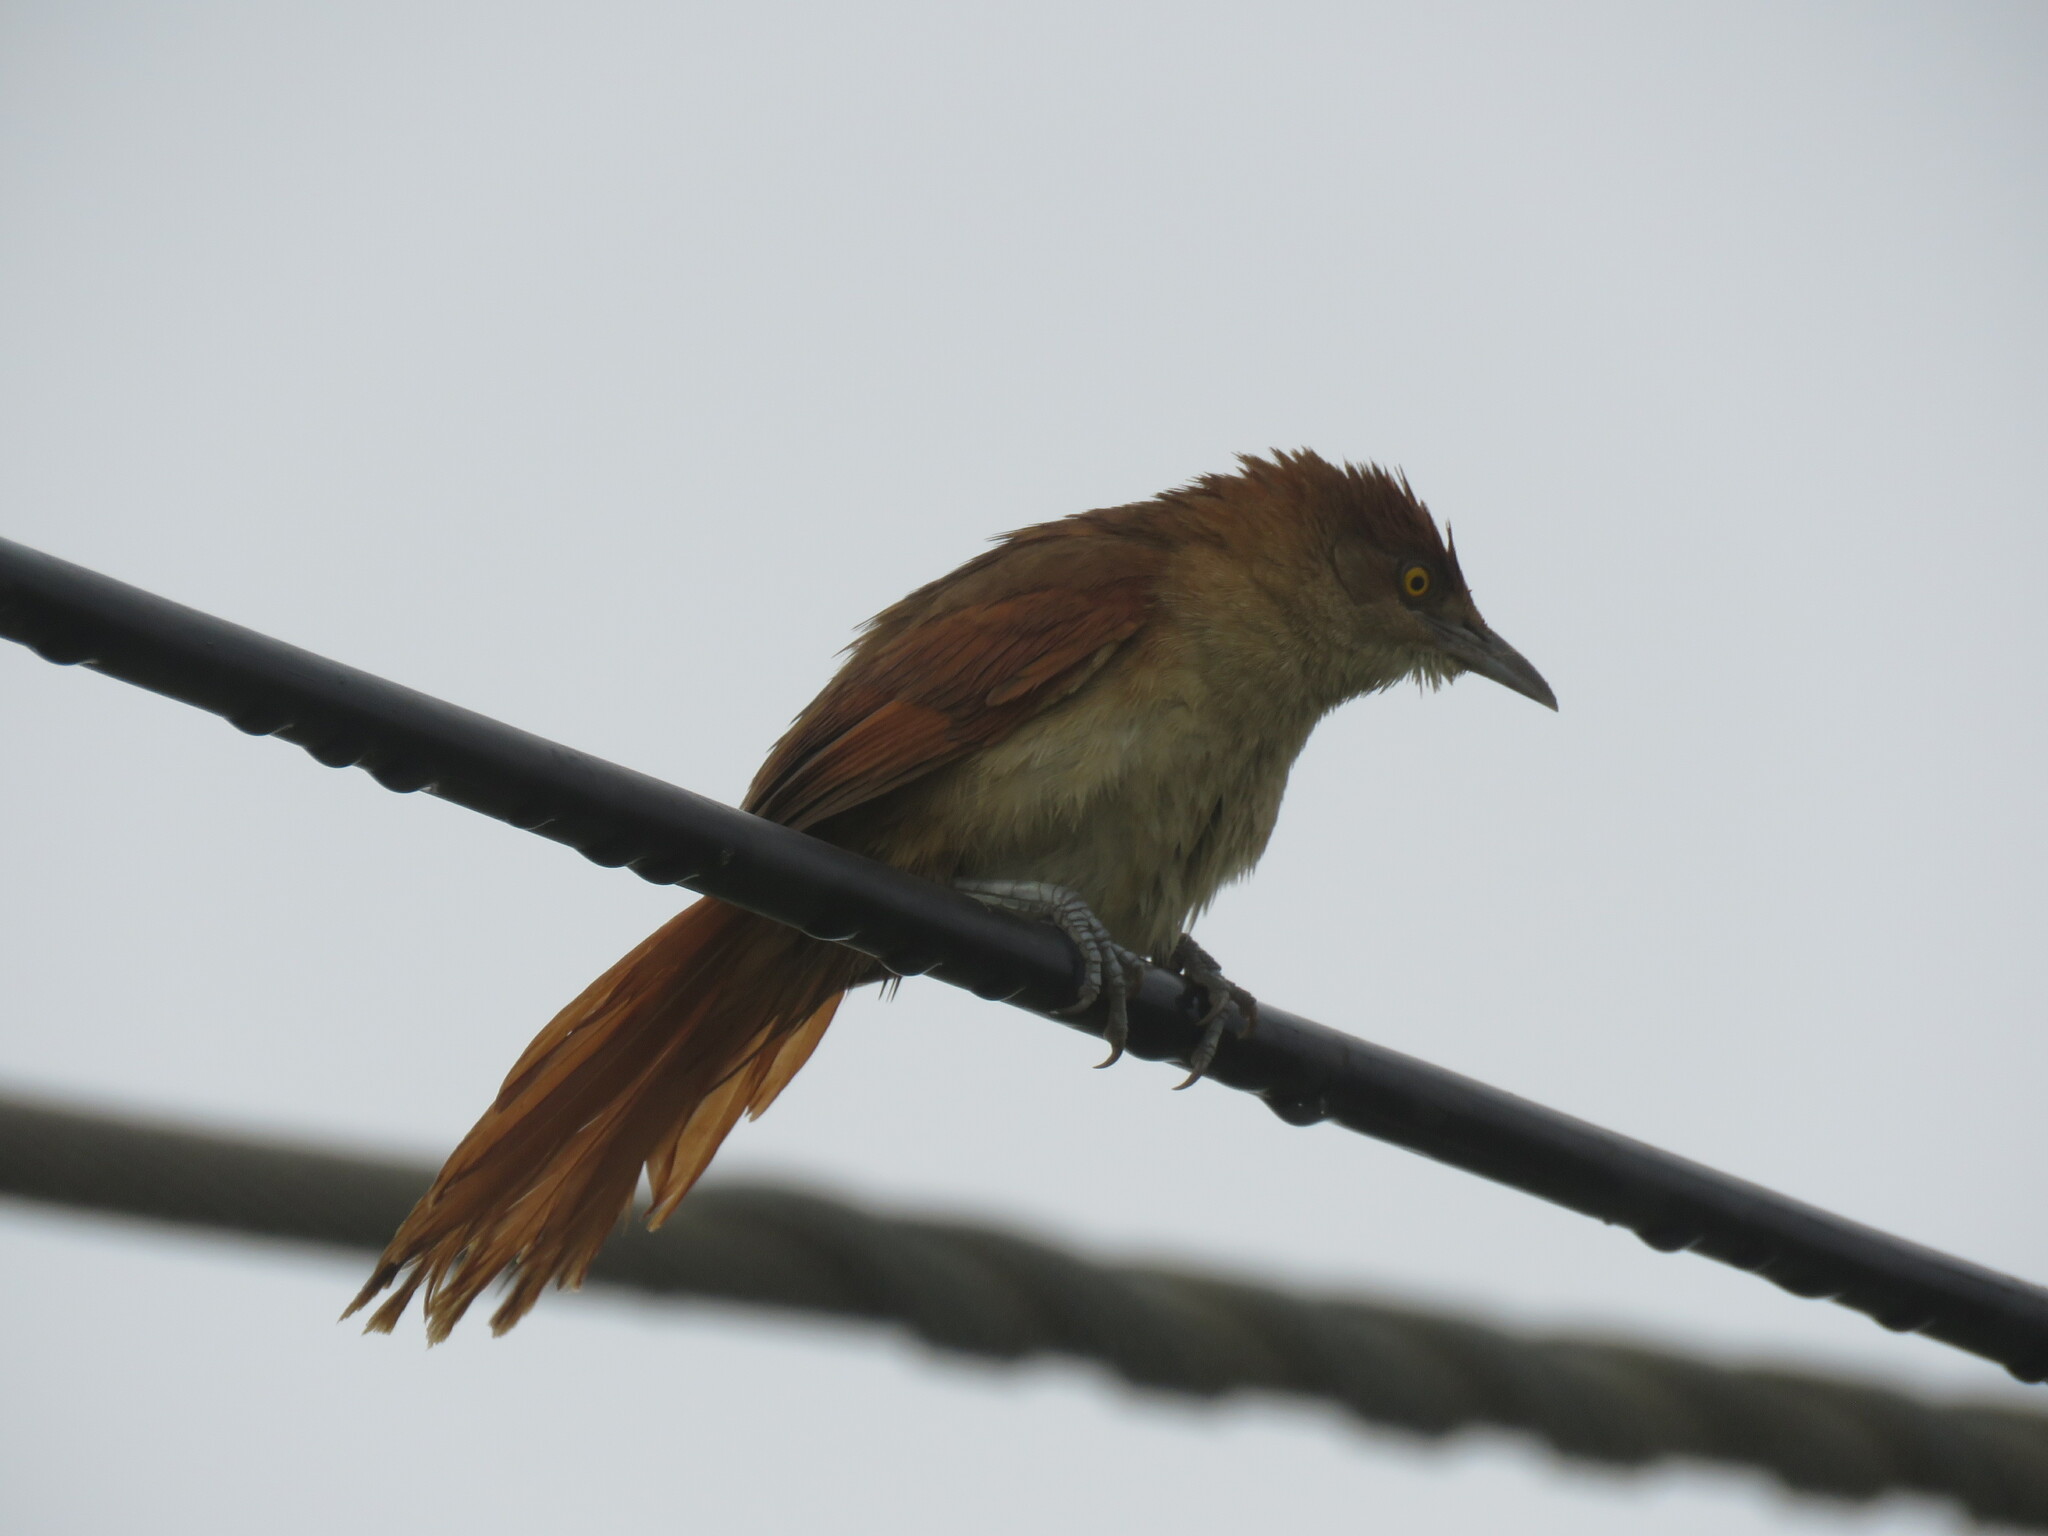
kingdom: Animalia
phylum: Chordata
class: Aves
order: Passeriformes
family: Furnariidae
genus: Phacellodomus
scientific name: Phacellodomus ruber
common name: Greater thornbird
